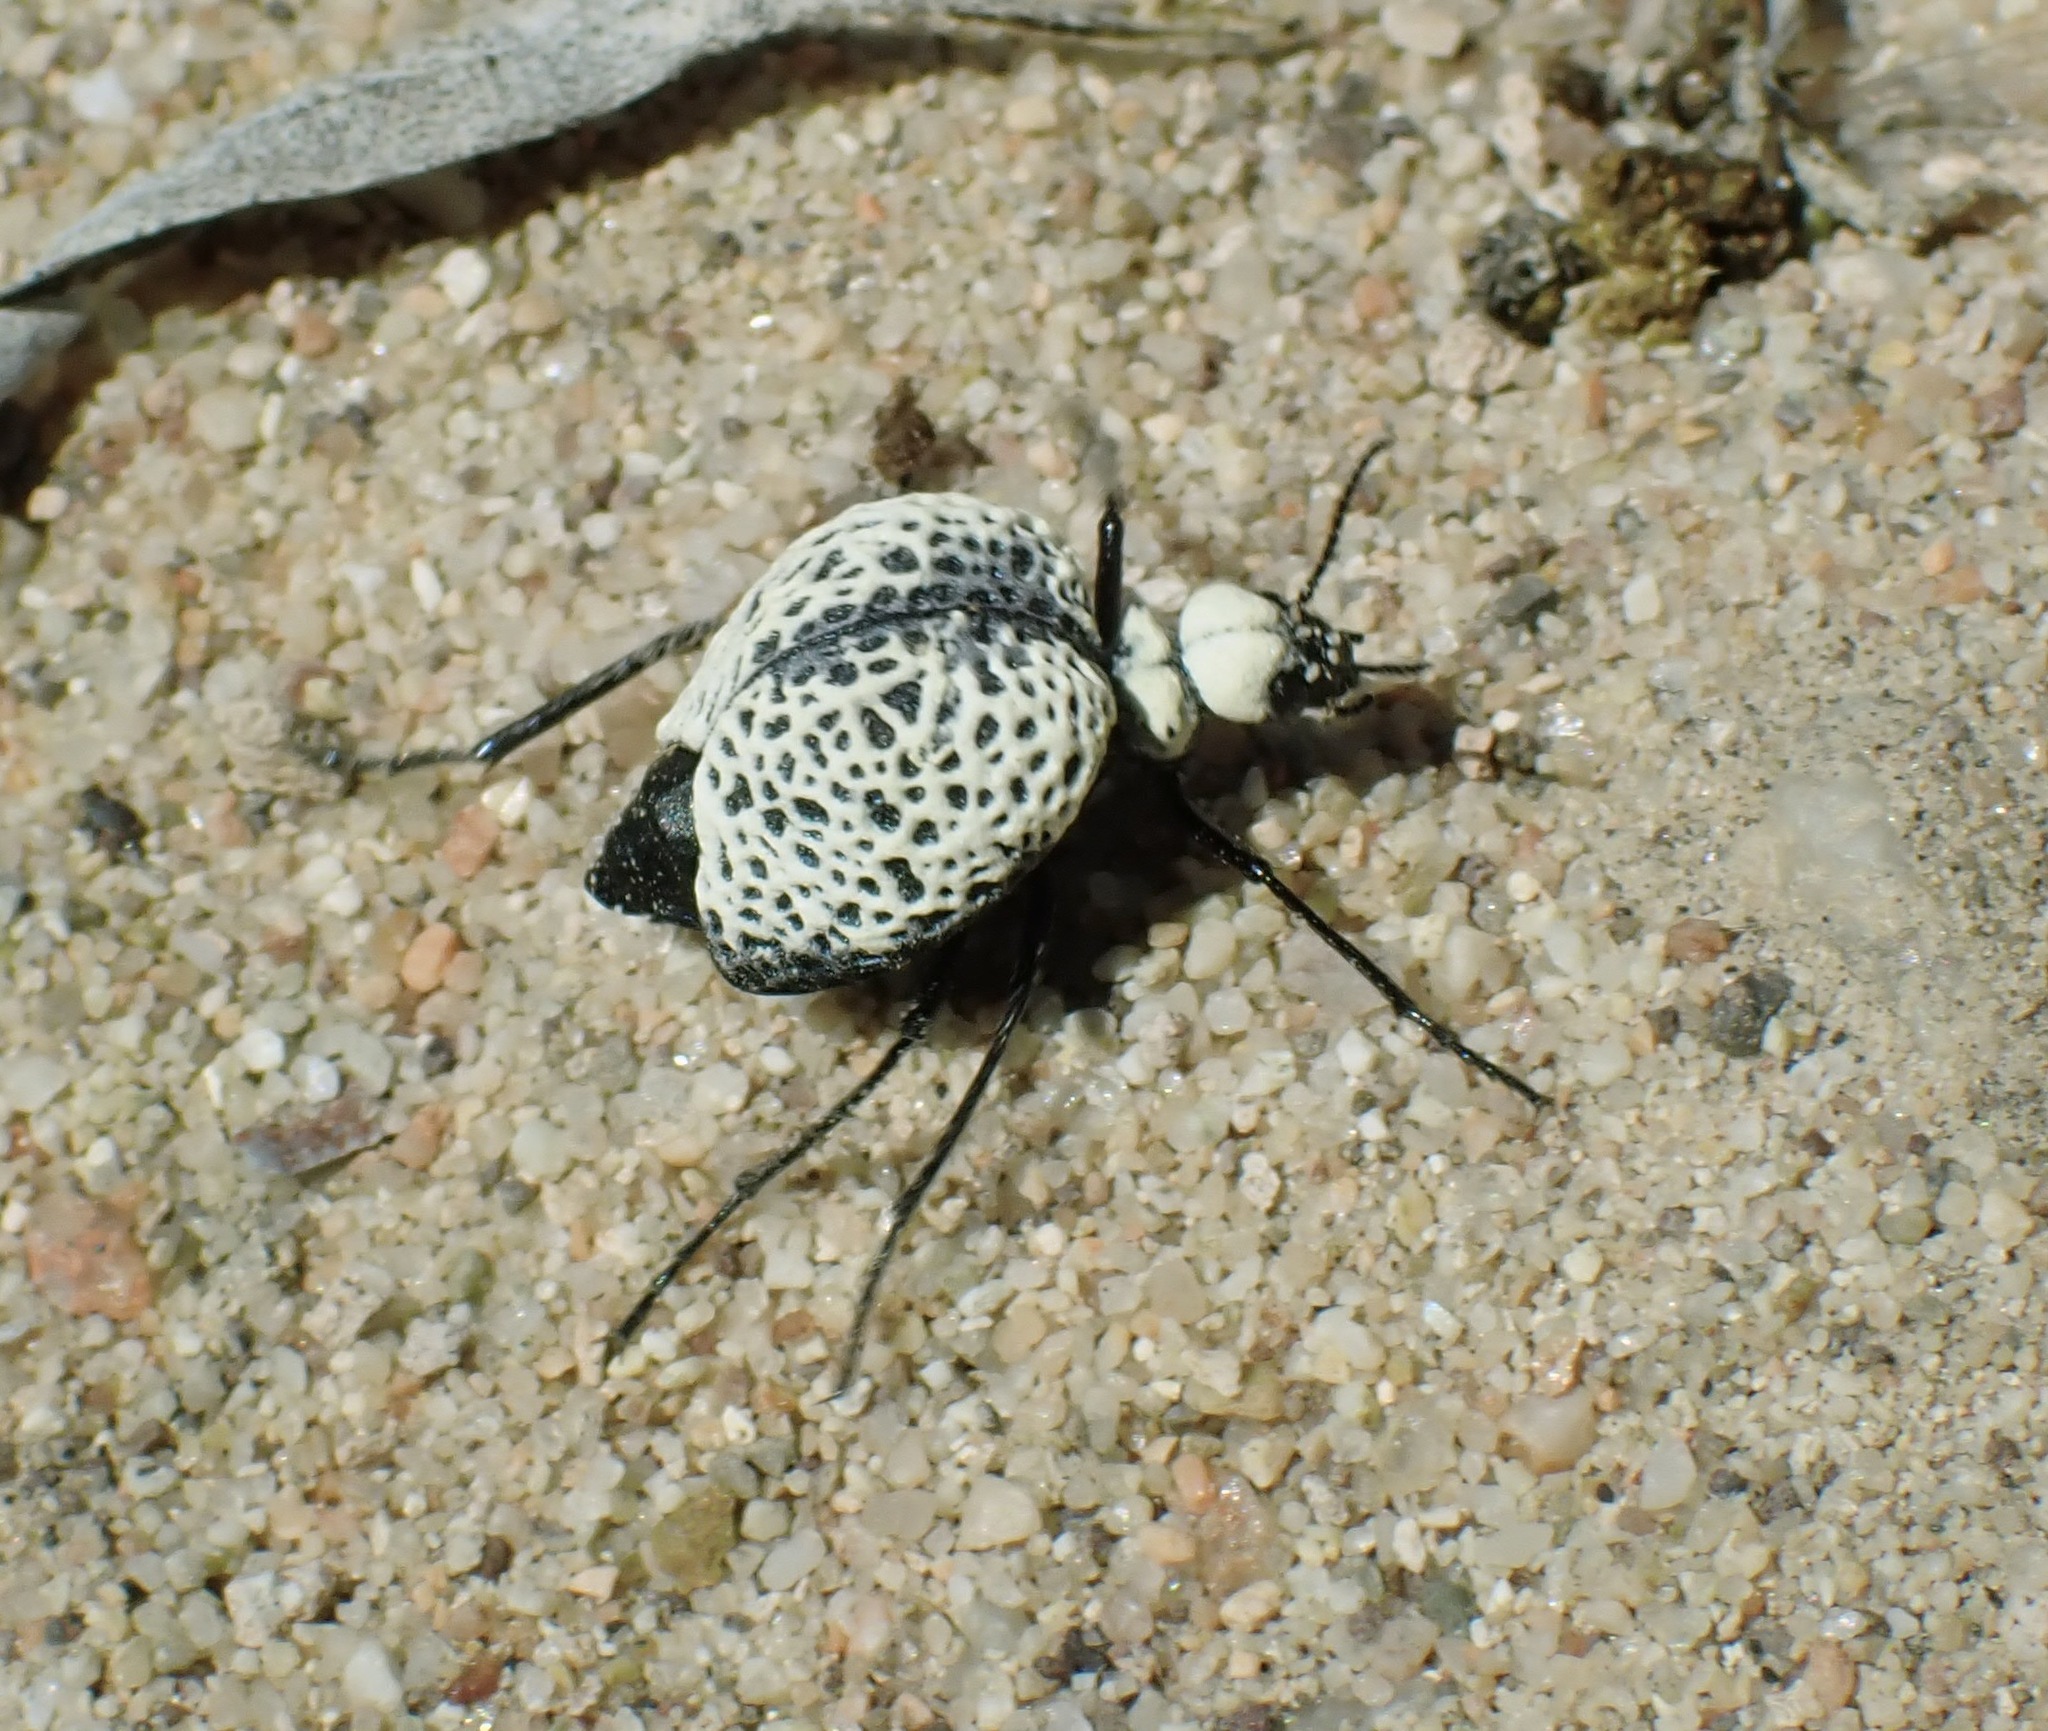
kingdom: Animalia
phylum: Arthropoda
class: Insecta
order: Coleoptera
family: Meloidae
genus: Cysteodemus
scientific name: Cysteodemus armatus
